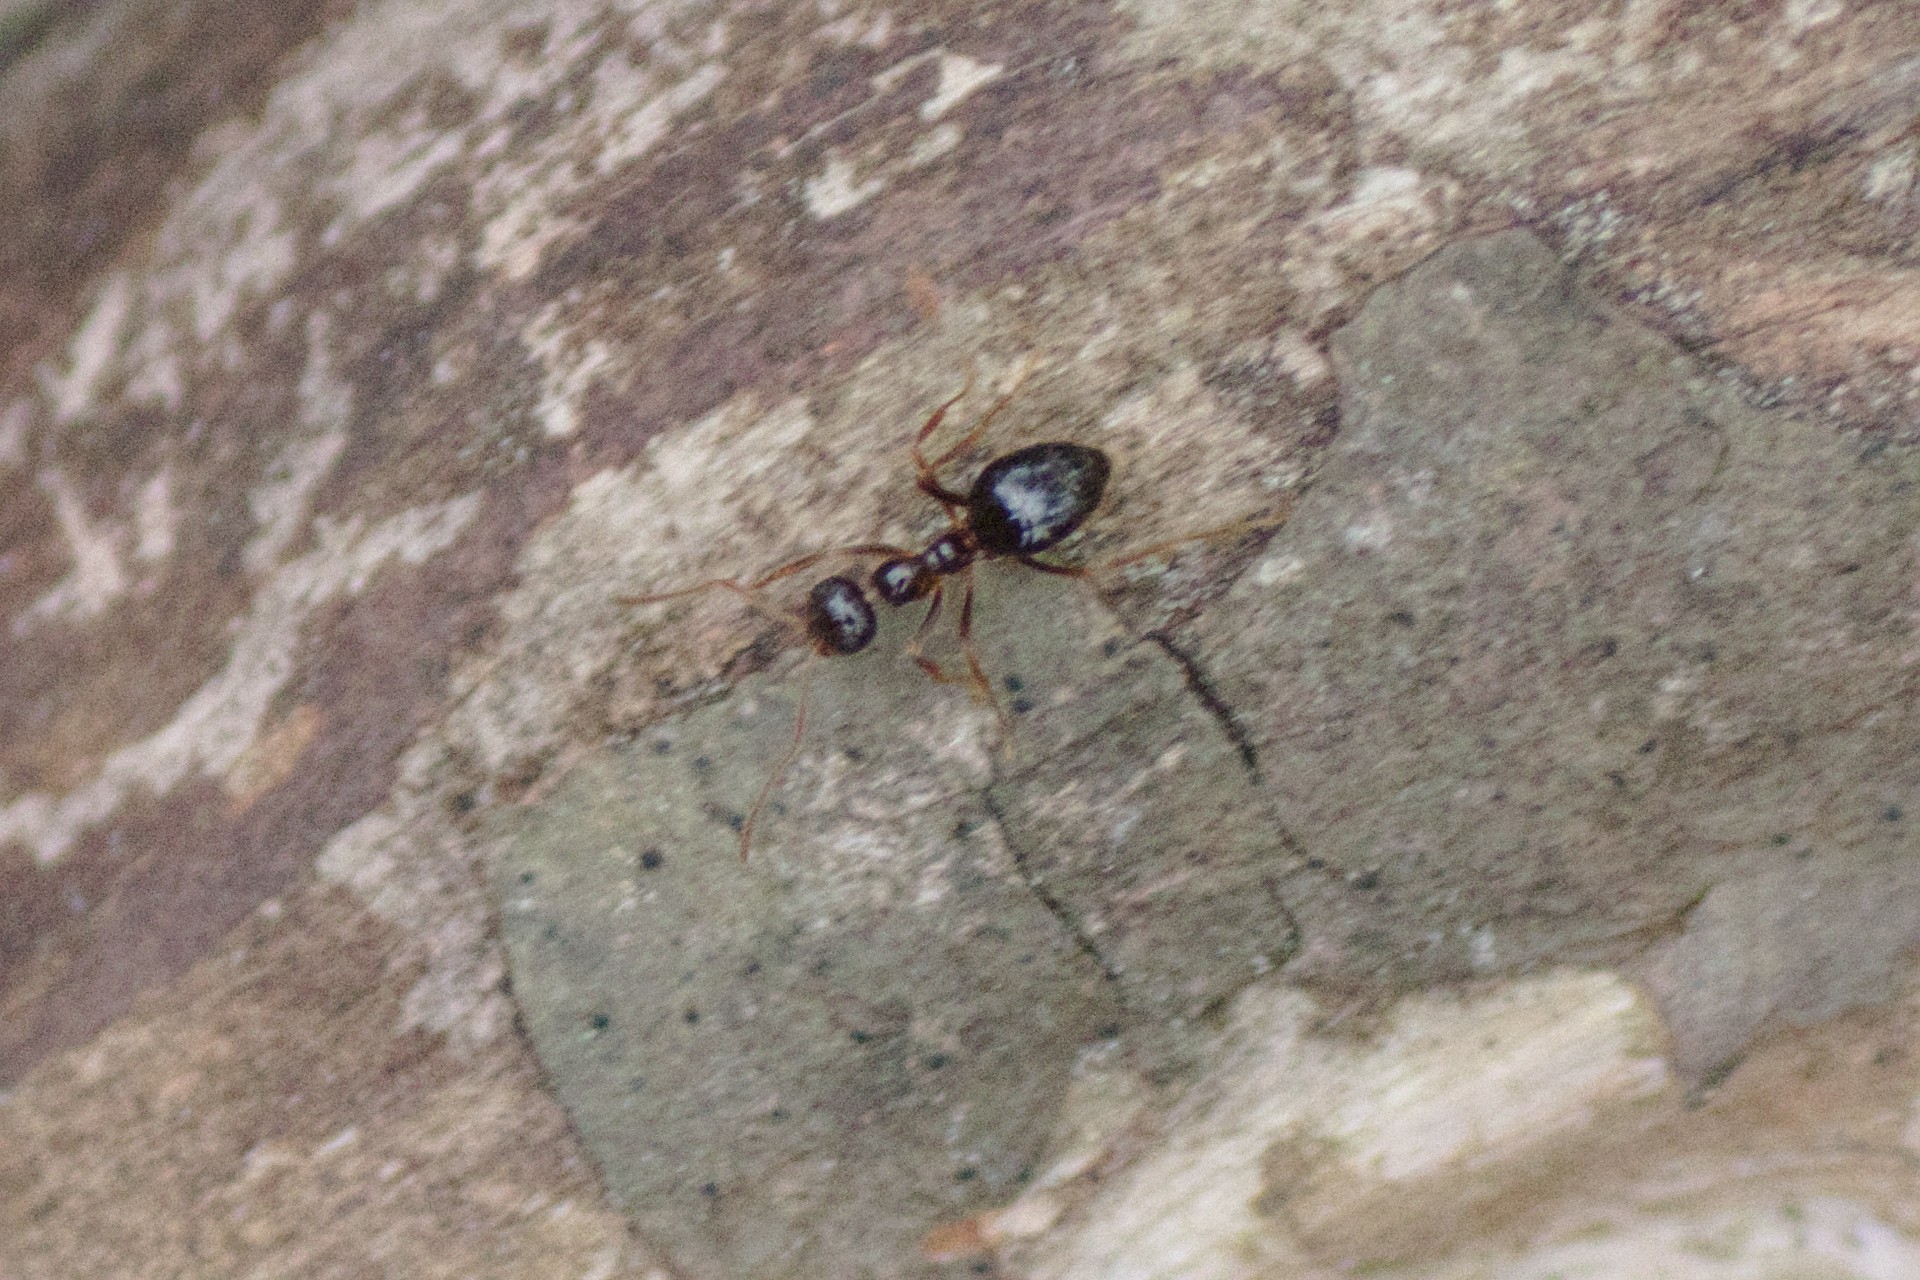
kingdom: Animalia
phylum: Arthropoda
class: Insecta
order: Hymenoptera
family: Formicidae
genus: Prenolepis
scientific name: Prenolepis imparis
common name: Small honey ant
